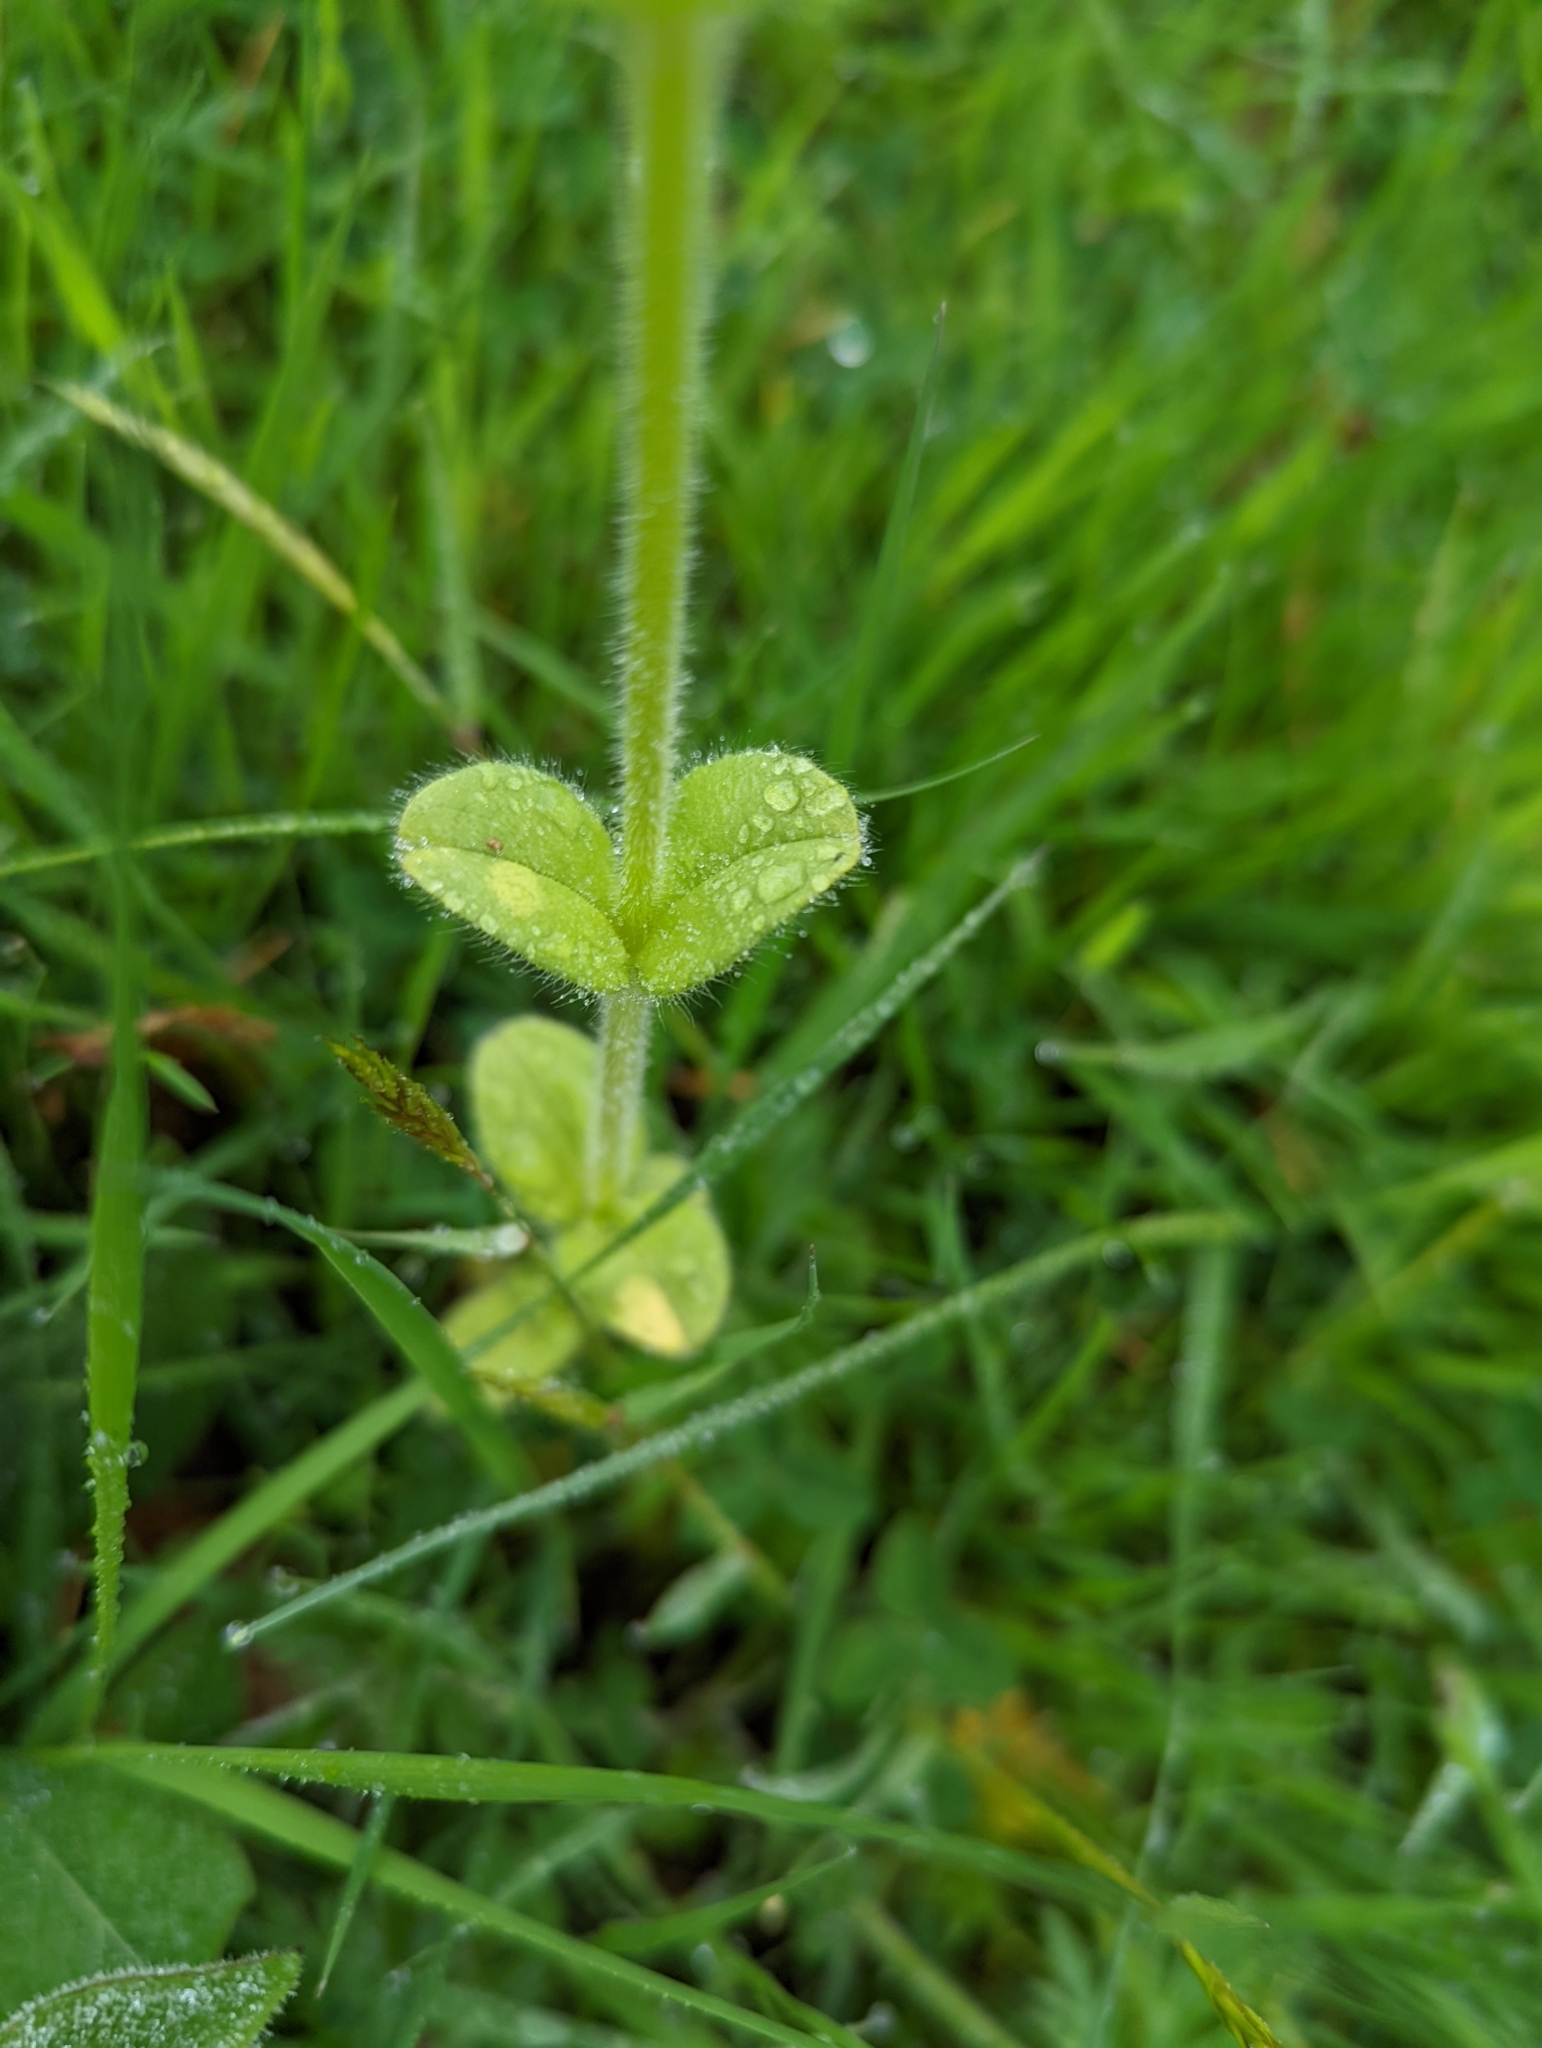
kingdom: Plantae
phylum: Tracheophyta
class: Magnoliopsida
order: Caryophyllales
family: Caryophyllaceae
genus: Cerastium
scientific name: Cerastium glomeratum
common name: Sticky chickweed
